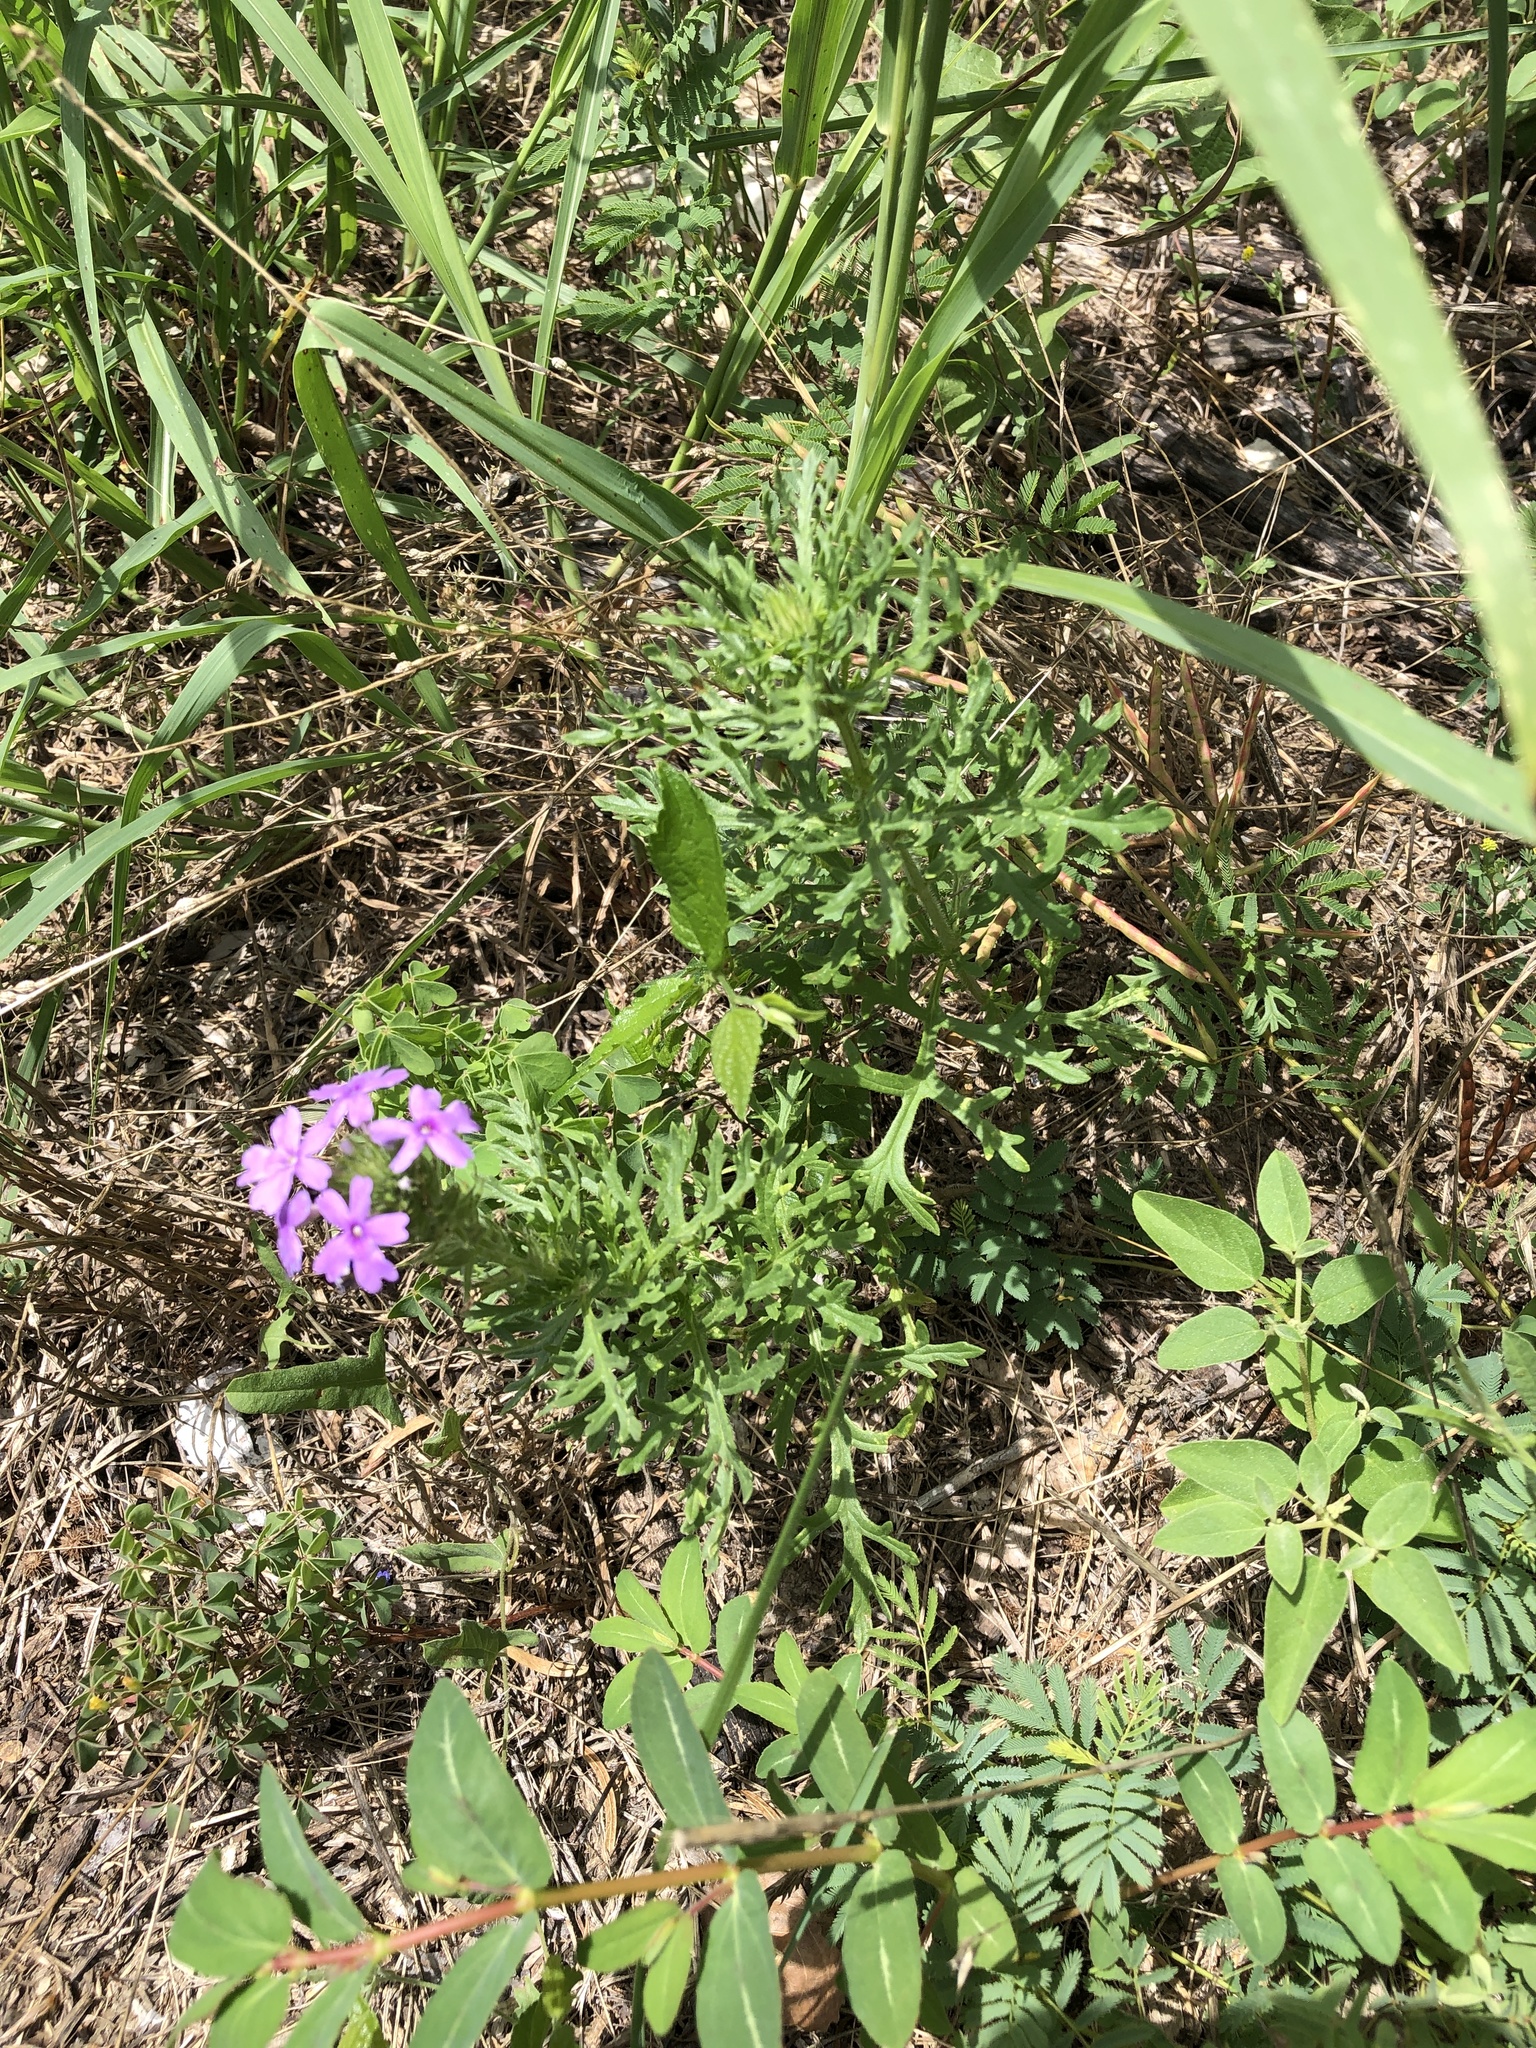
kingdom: Plantae
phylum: Tracheophyta
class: Magnoliopsida
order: Lamiales
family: Verbenaceae
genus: Verbena
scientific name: Verbena bipinnatifida
